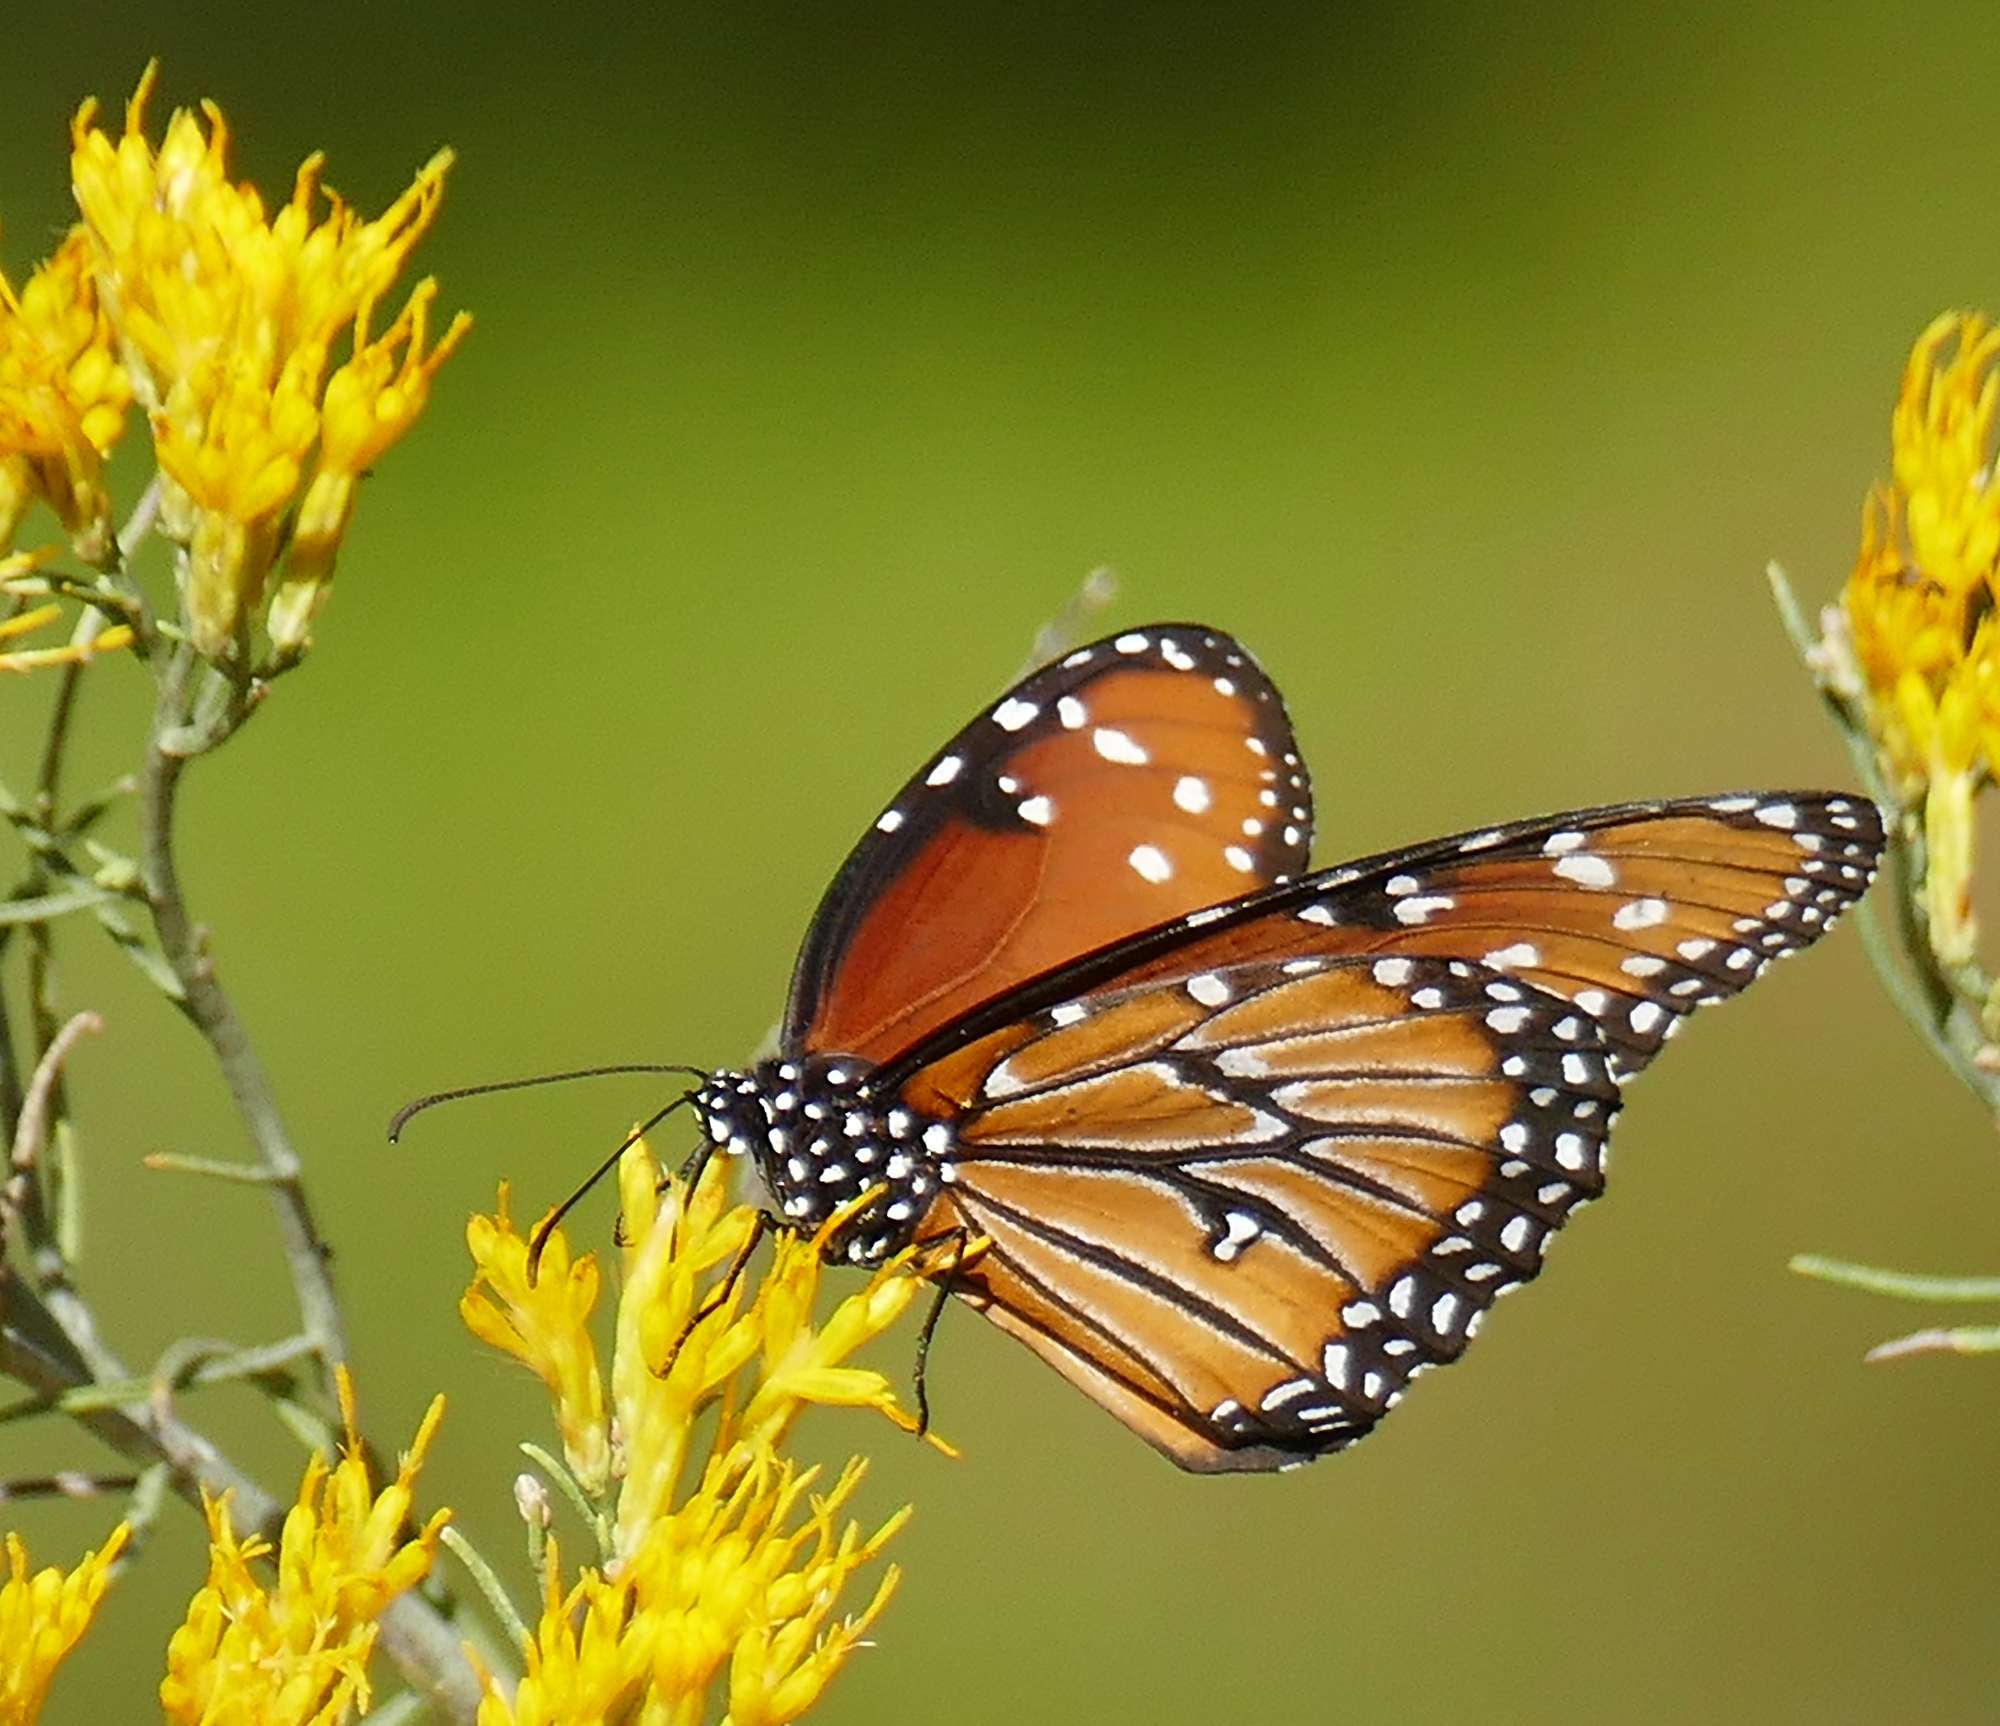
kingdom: Animalia
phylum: Arthropoda
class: Insecta
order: Lepidoptera
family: Nymphalidae
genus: Danaus
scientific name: Danaus gilippus
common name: Queen
